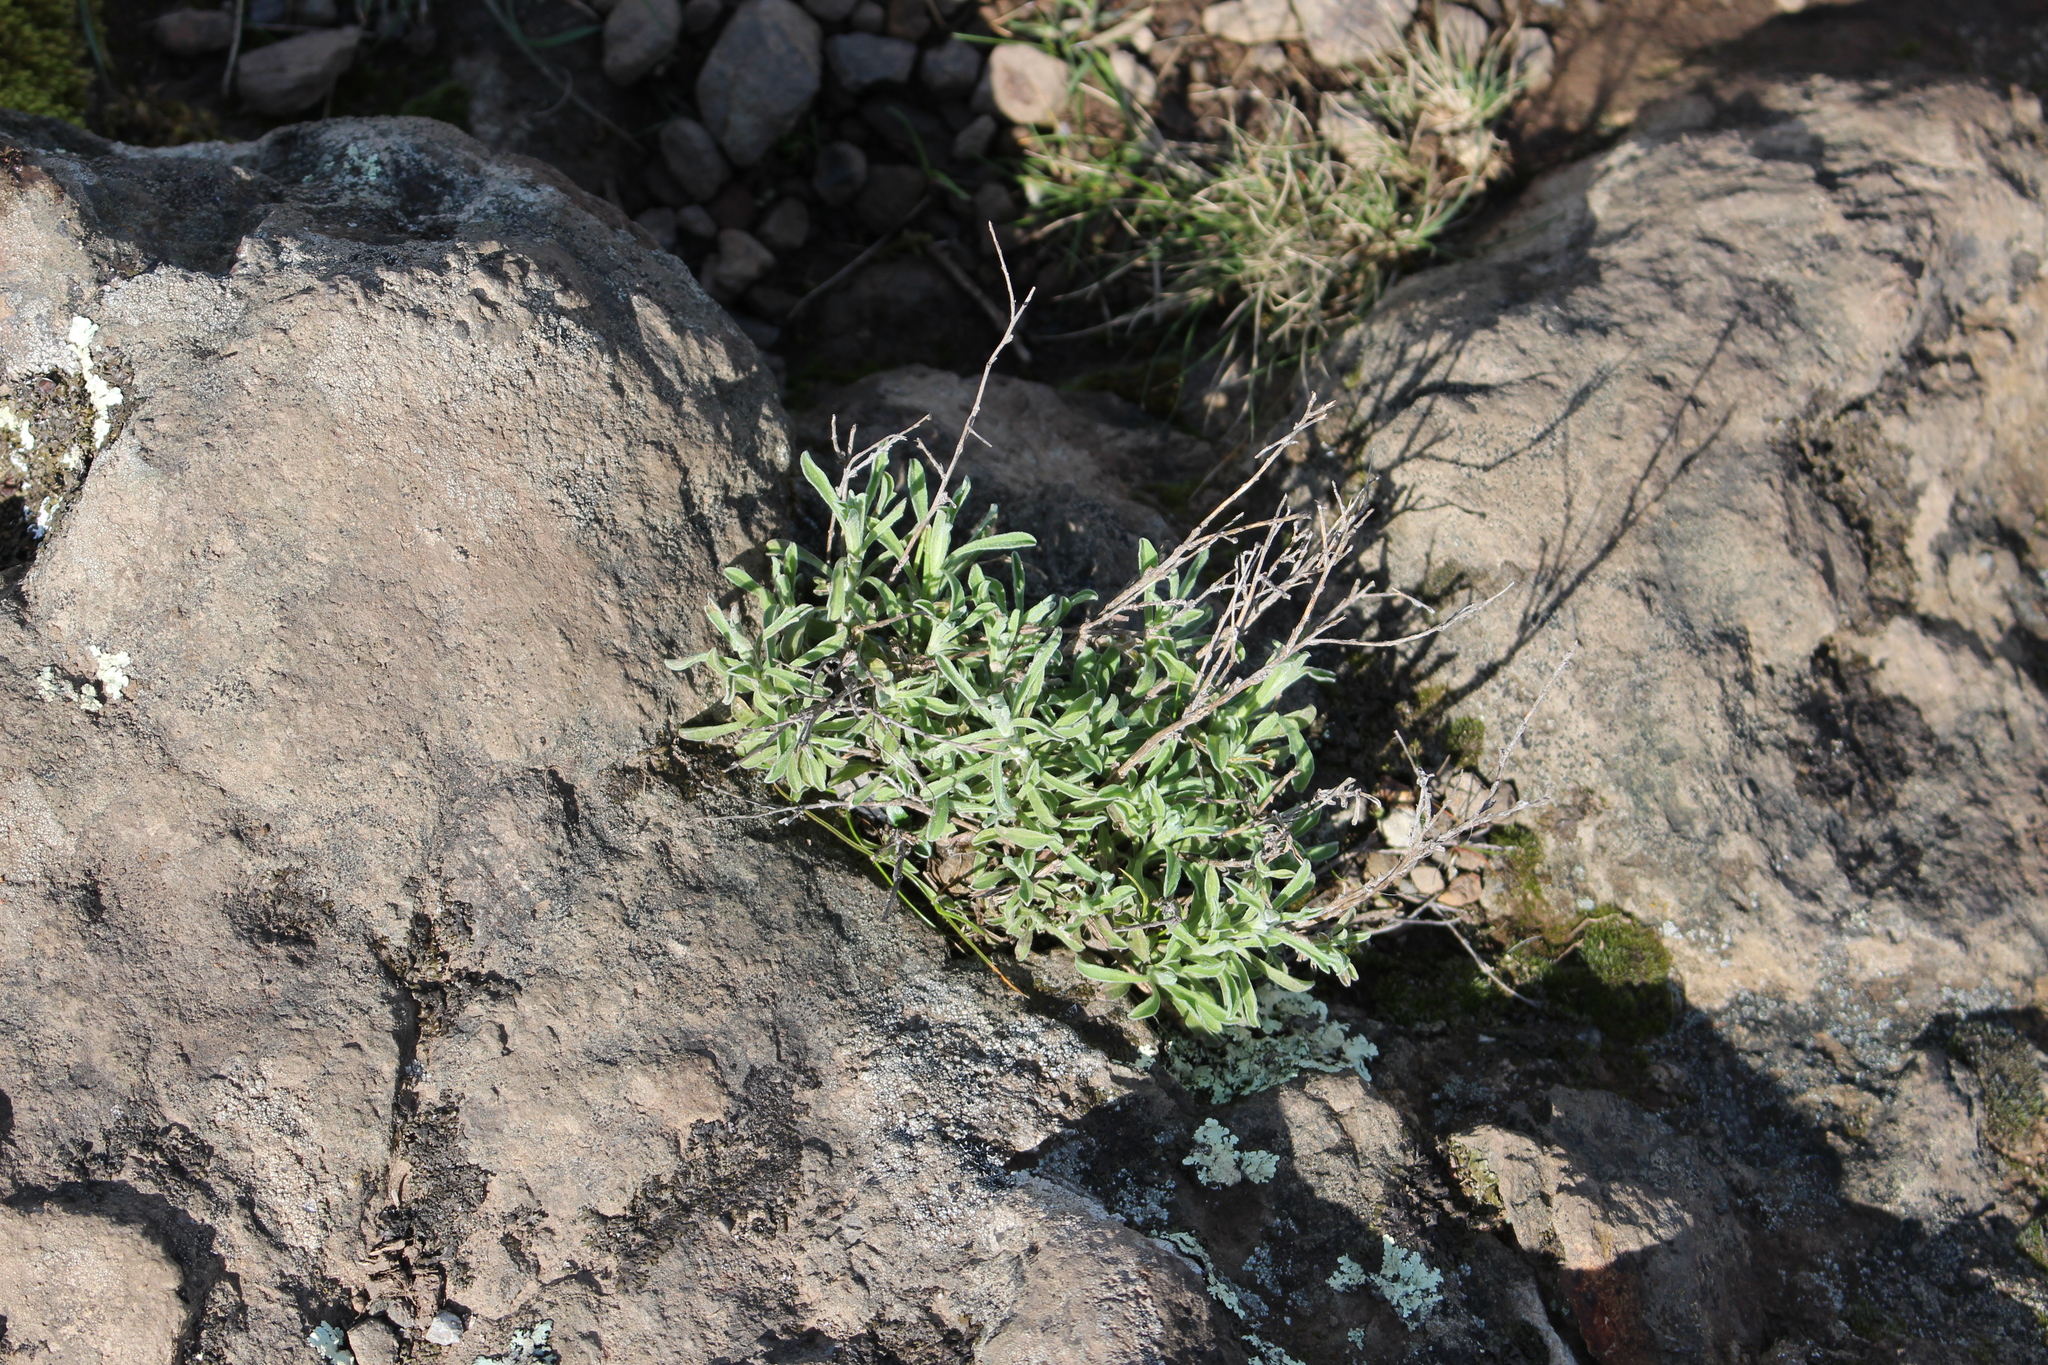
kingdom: Plantae
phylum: Tracheophyta
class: Magnoliopsida
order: Asterales
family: Asteraceae
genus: Vittadinia
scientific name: Vittadinia gracilis
